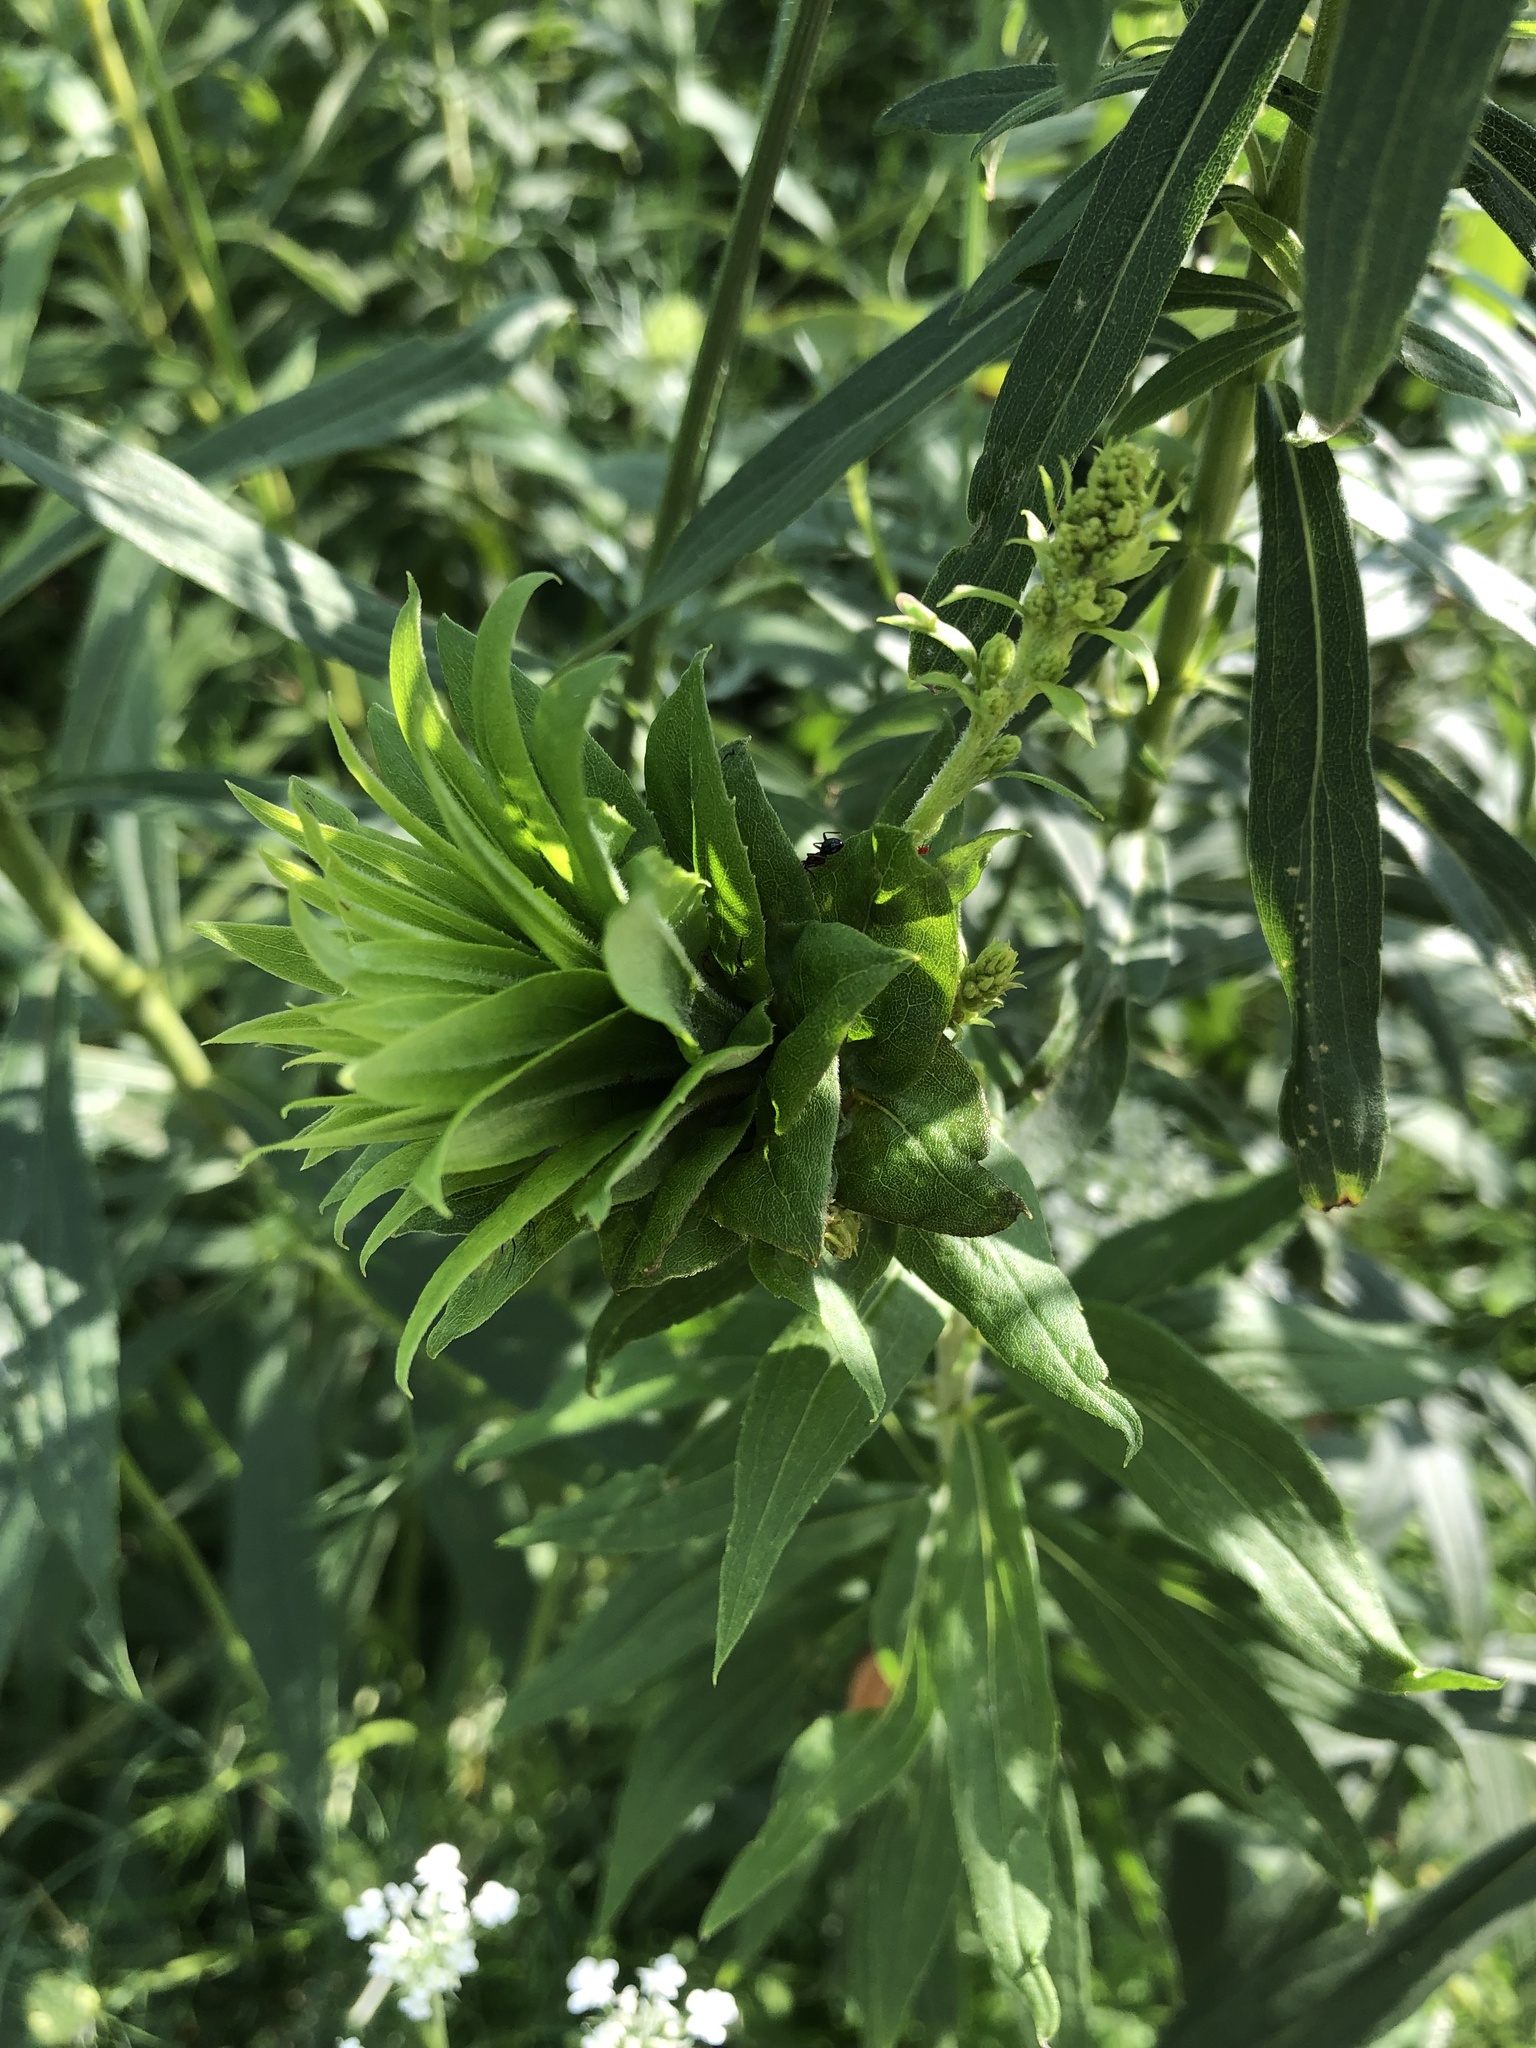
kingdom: Animalia
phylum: Arthropoda
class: Insecta
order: Diptera
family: Cecidomyiidae
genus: Rhopalomyia
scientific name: Rhopalomyia solidaginis
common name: Goldenrod bunch gall midge
